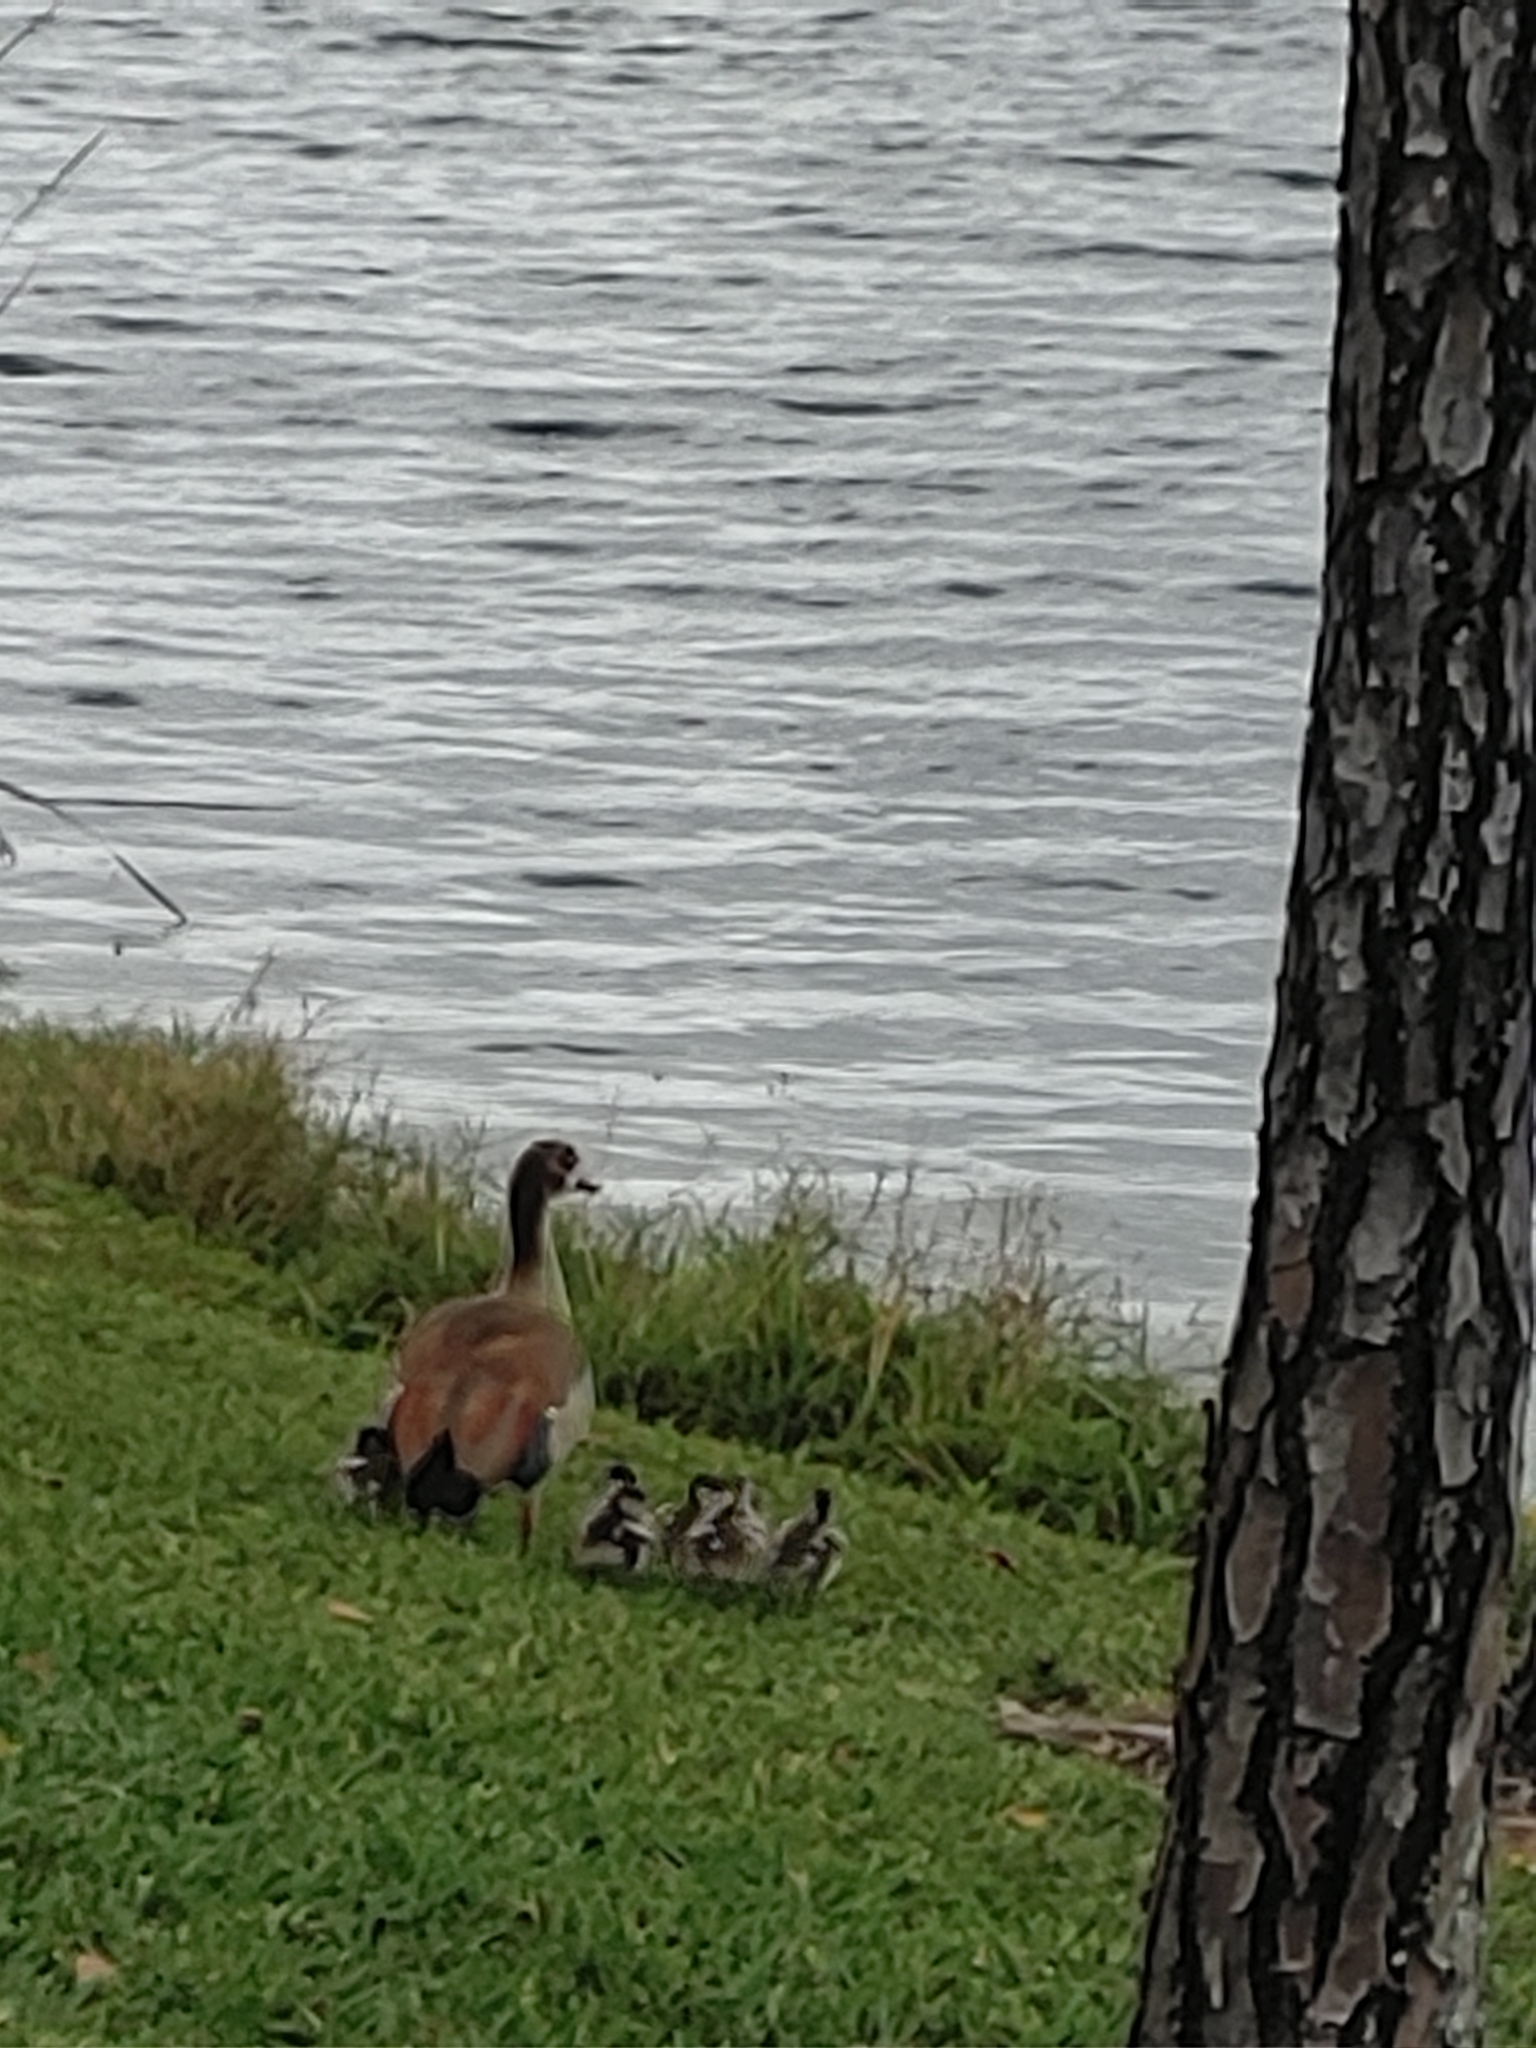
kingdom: Animalia
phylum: Chordata
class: Aves
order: Anseriformes
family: Anatidae
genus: Alopochen
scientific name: Alopochen aegyptiaca
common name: Egyptian goose
